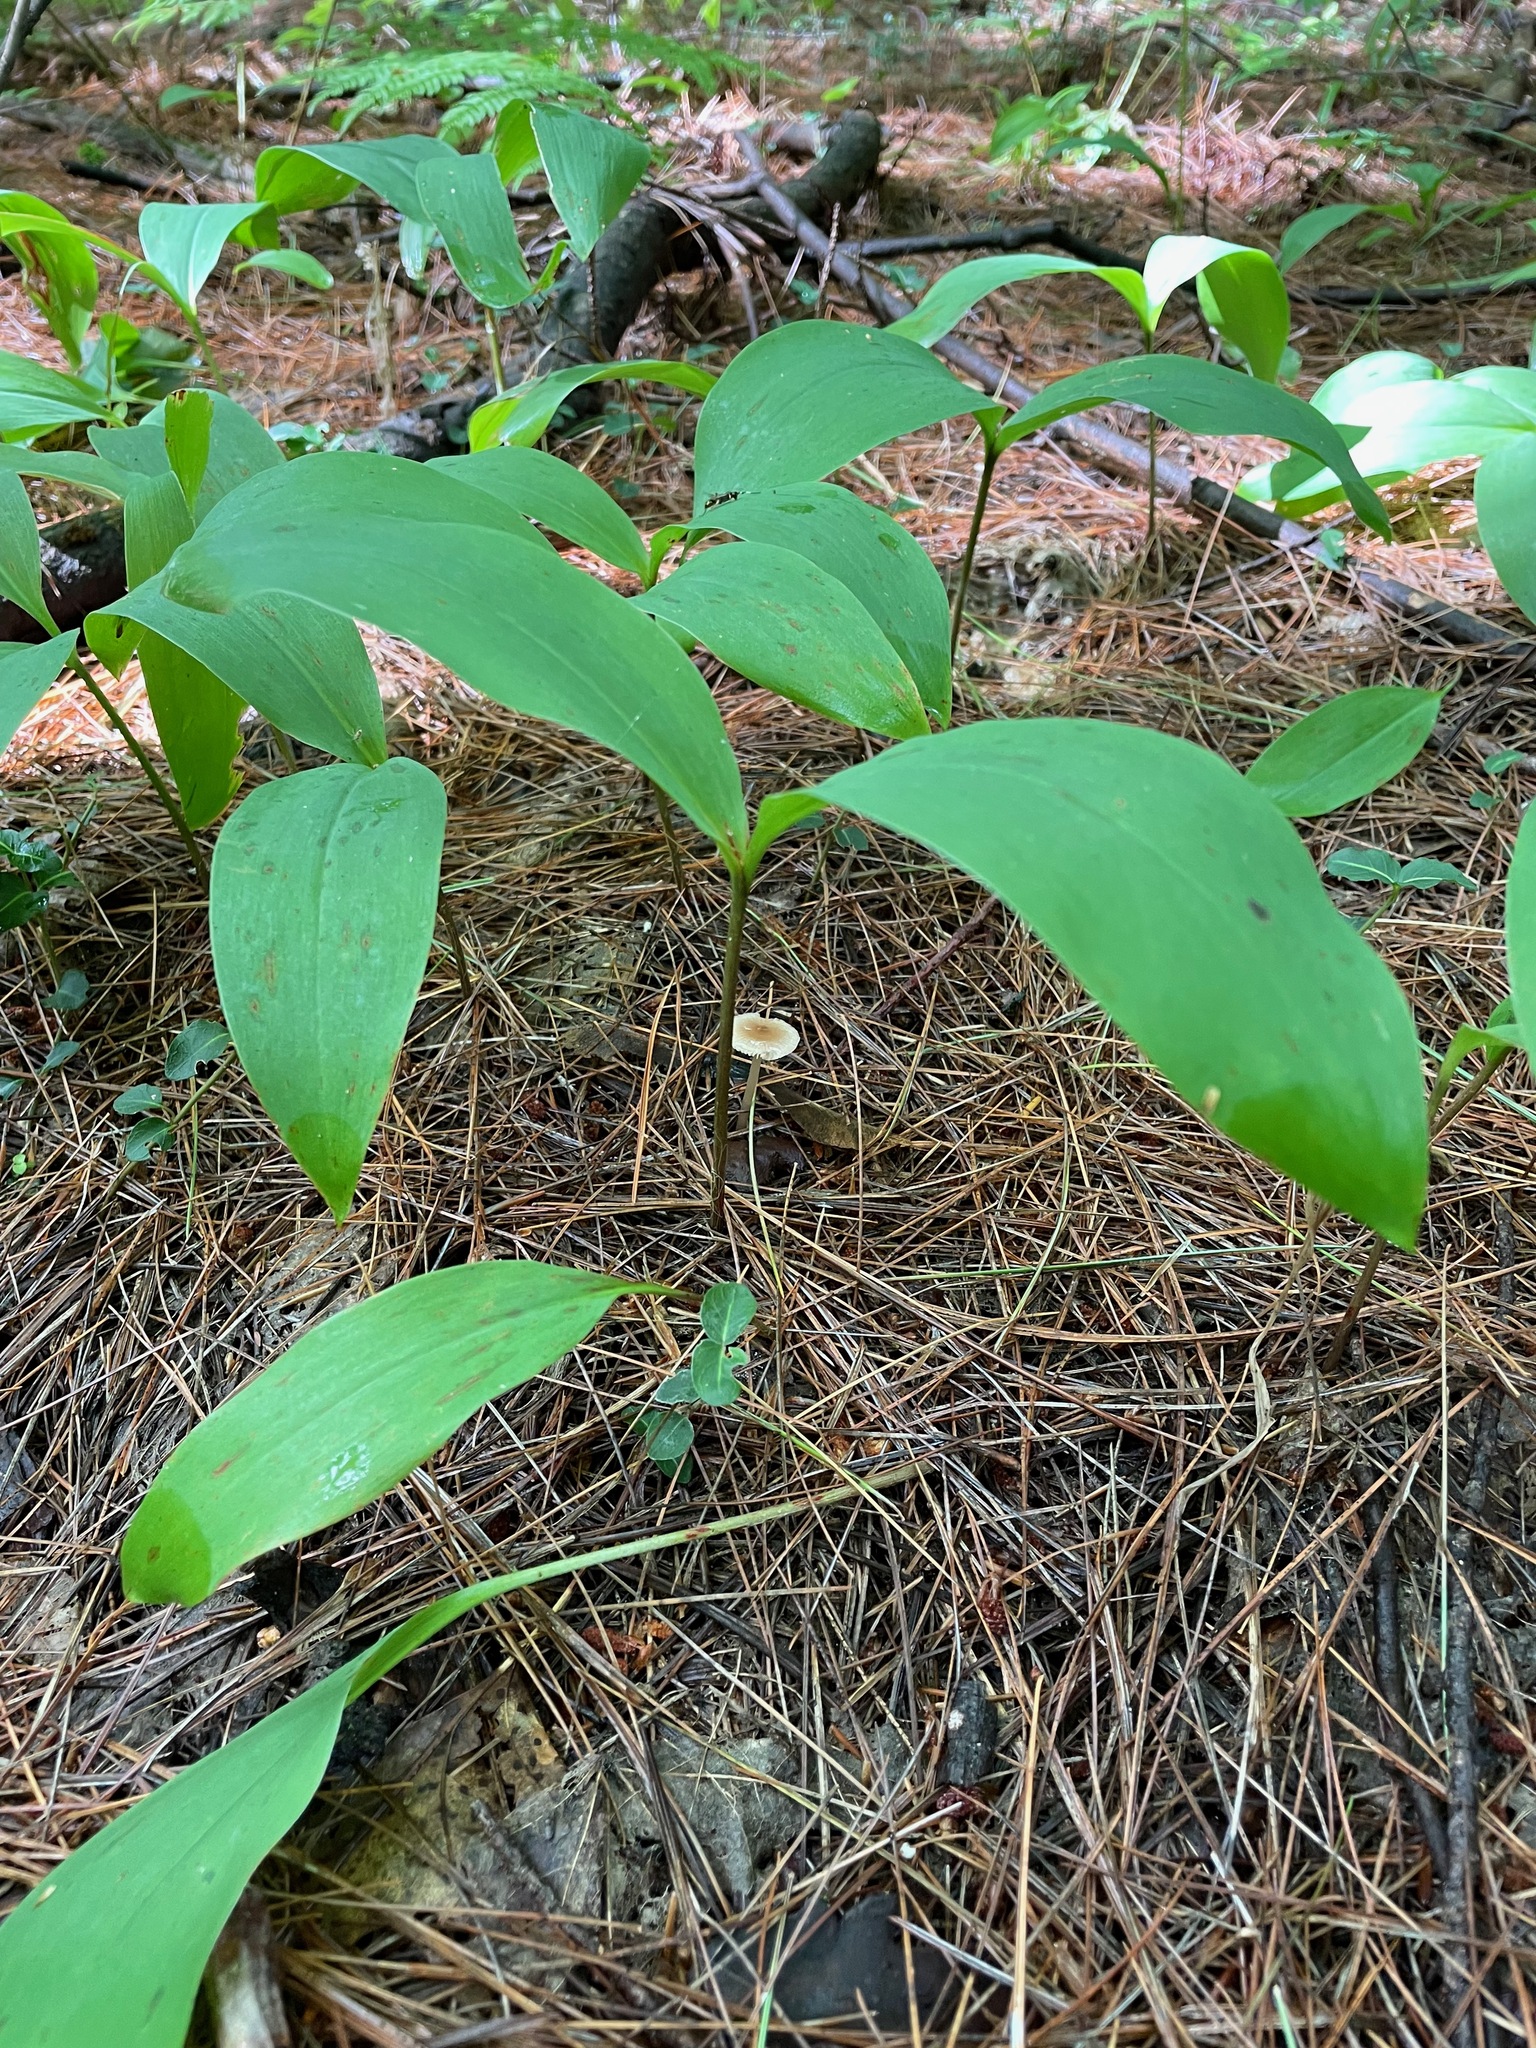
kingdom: Plantae
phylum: Tracheophyta
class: Liliopsida
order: Asparagales
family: Asparagaceae
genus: Convallaria
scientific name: Convallaria majalis
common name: Lily-of-the-valley
